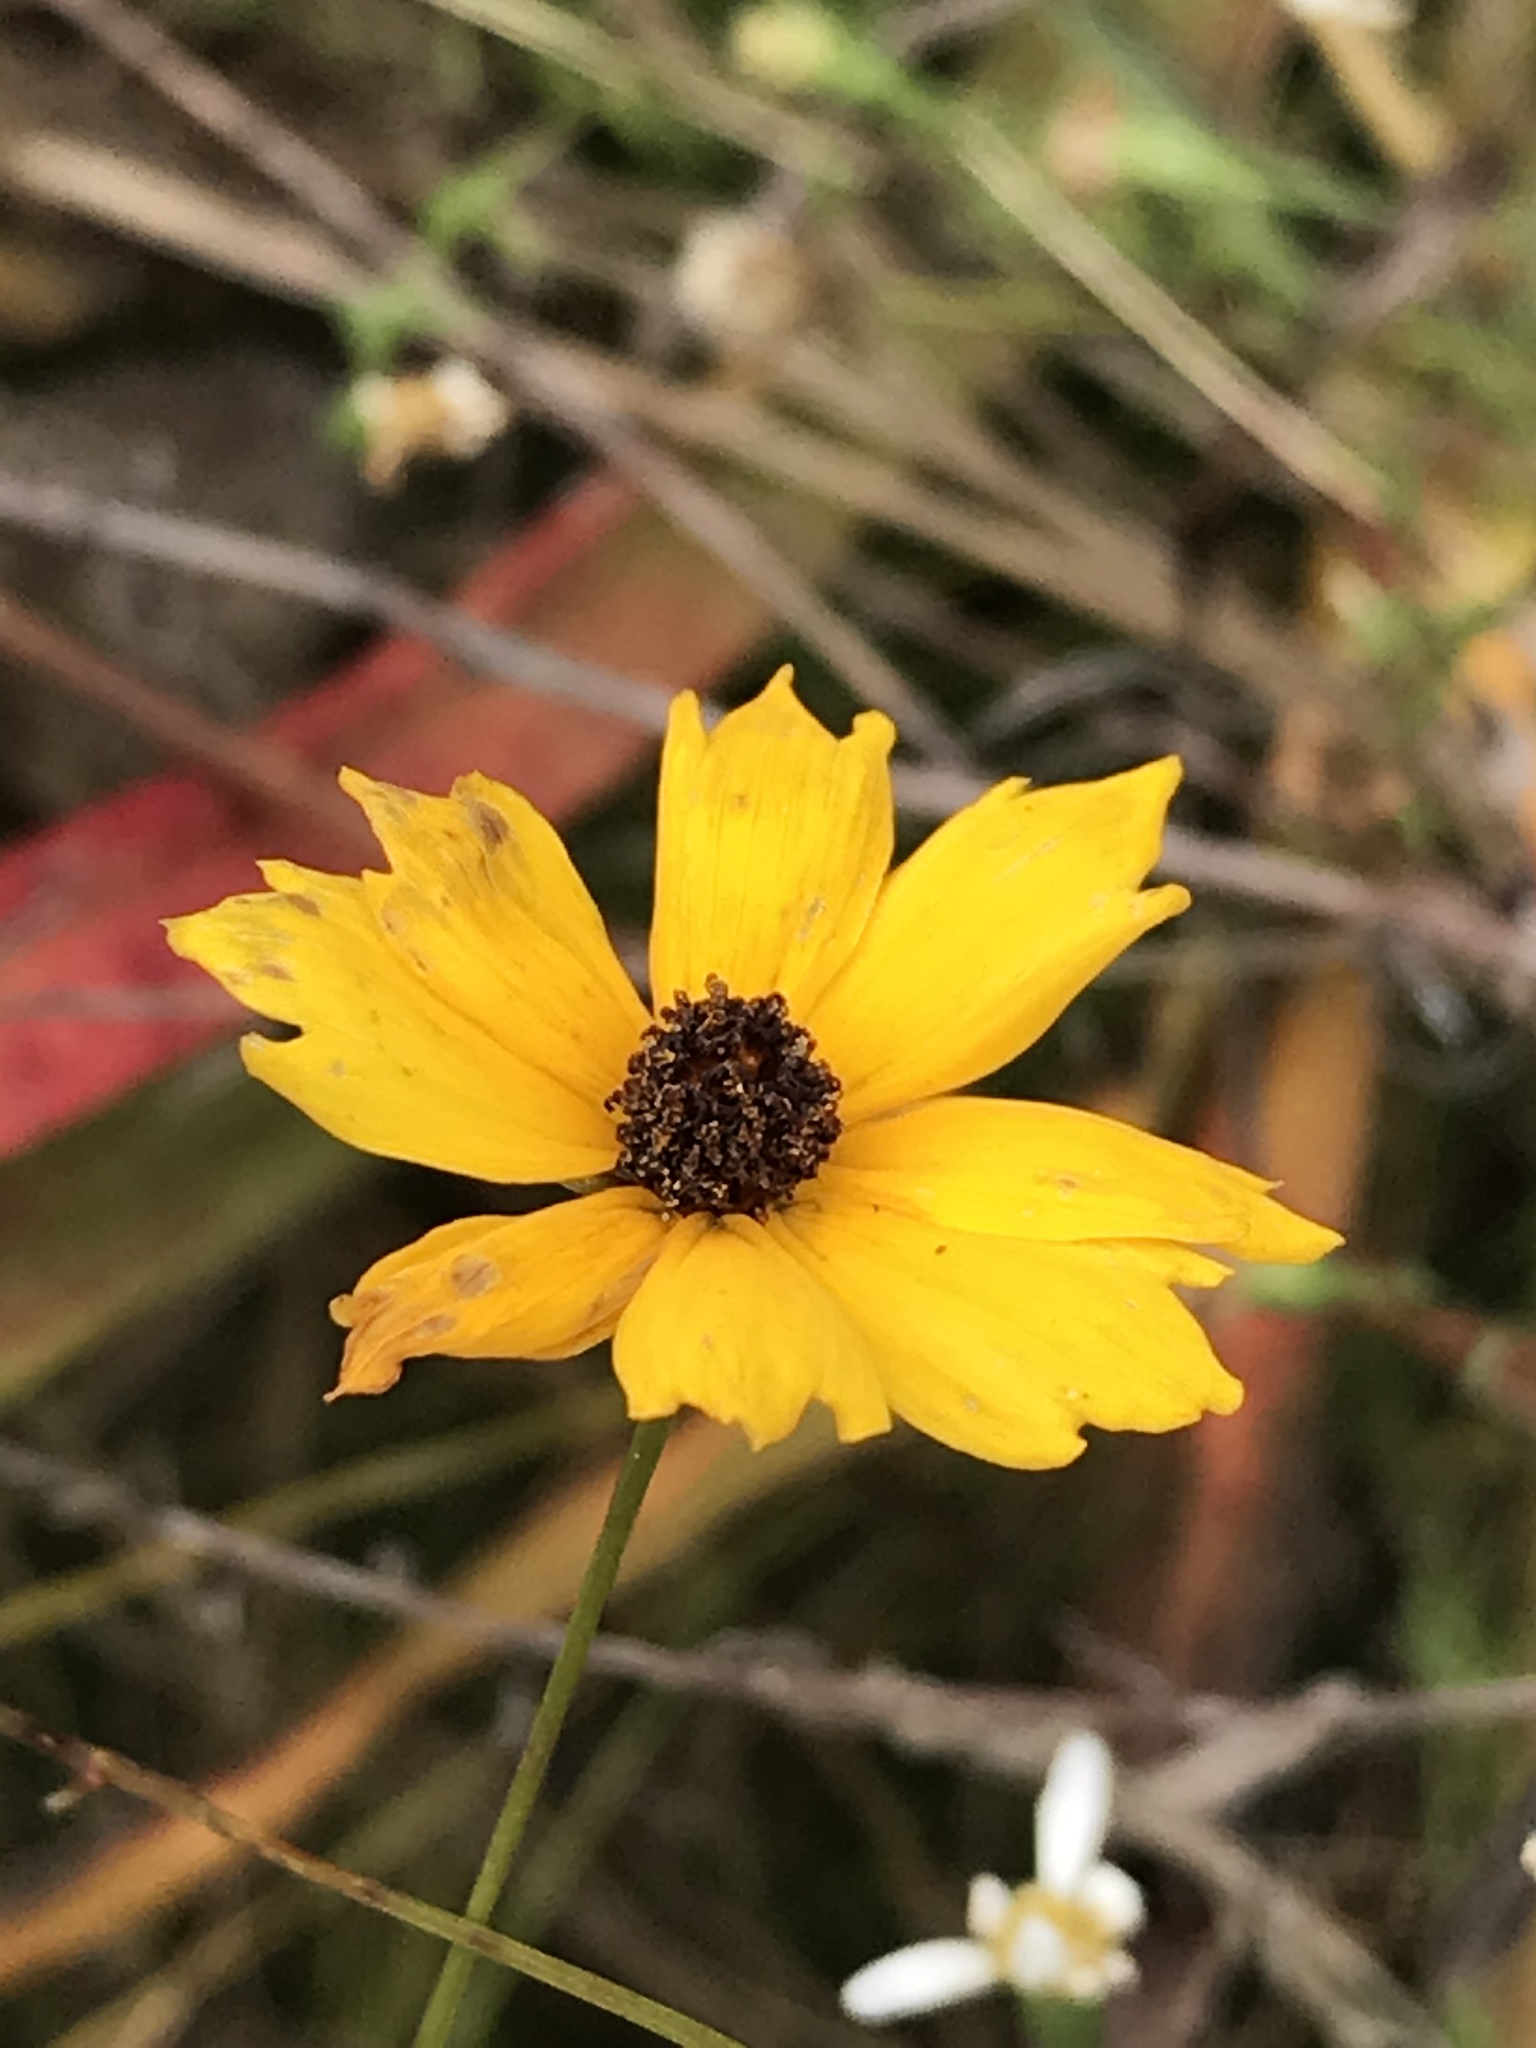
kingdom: Plantae
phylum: Tracheophyta
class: Magnoliopsida
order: Asterales
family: Asteraceae
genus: Coreopsis
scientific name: Coreopsis gladiata
